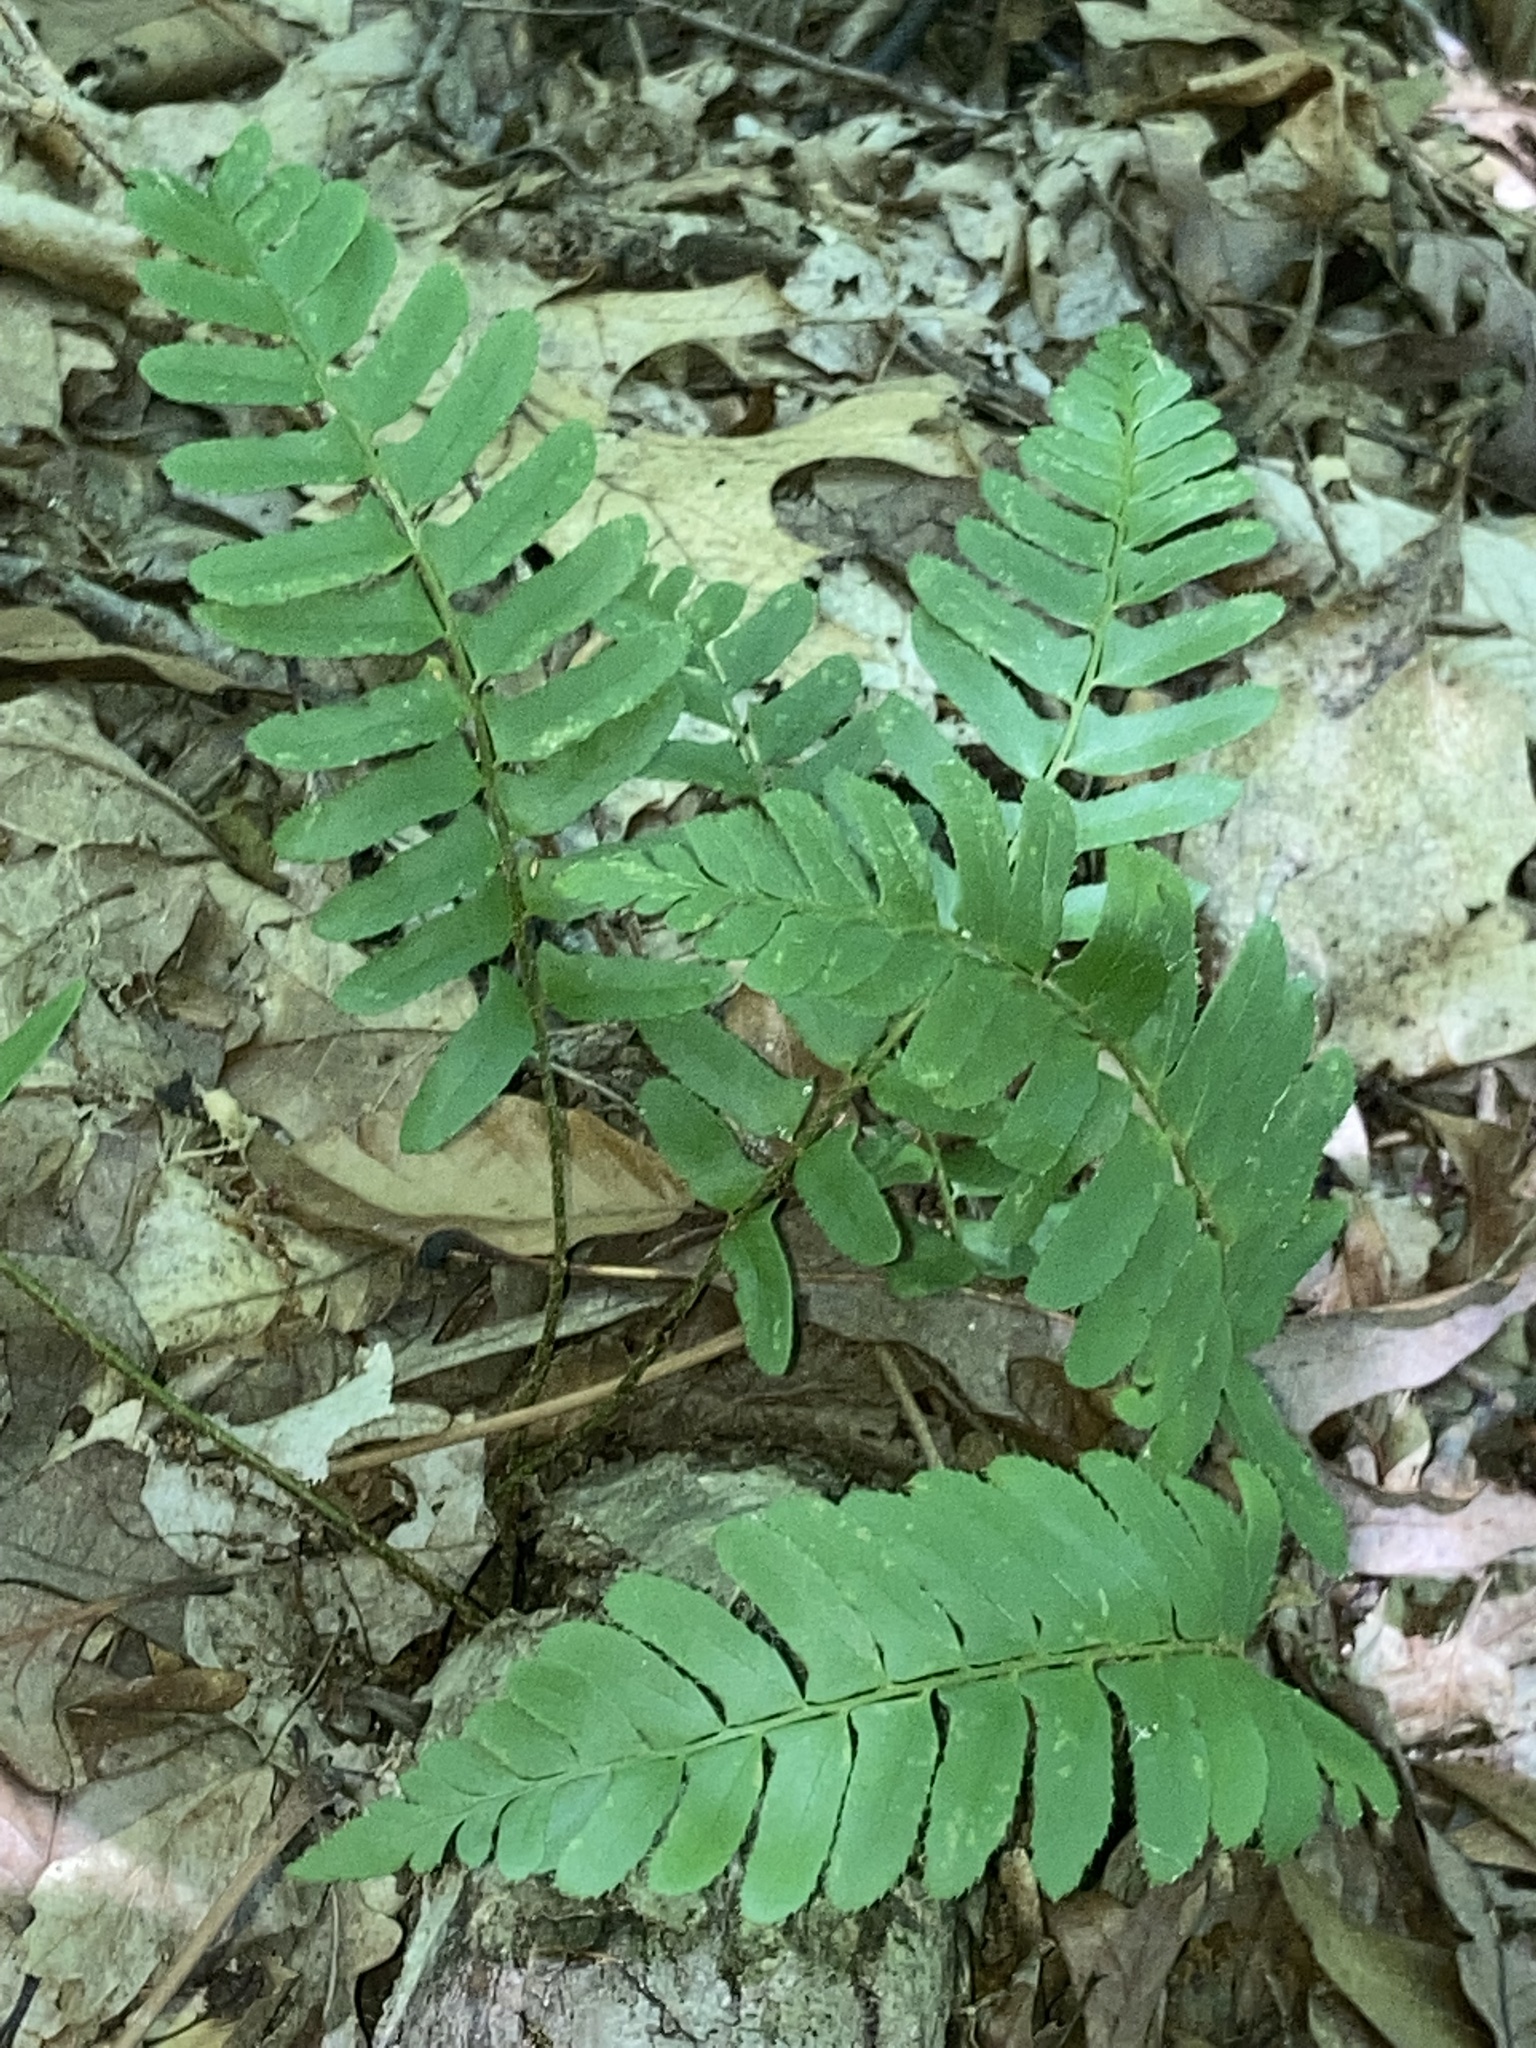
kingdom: Plantae
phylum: Tracheophyta
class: Polypodiopsida
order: Polypodiales
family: Dryopteridaceae
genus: Polystichum
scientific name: Polystichum acrostichoides
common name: Christmas fern
